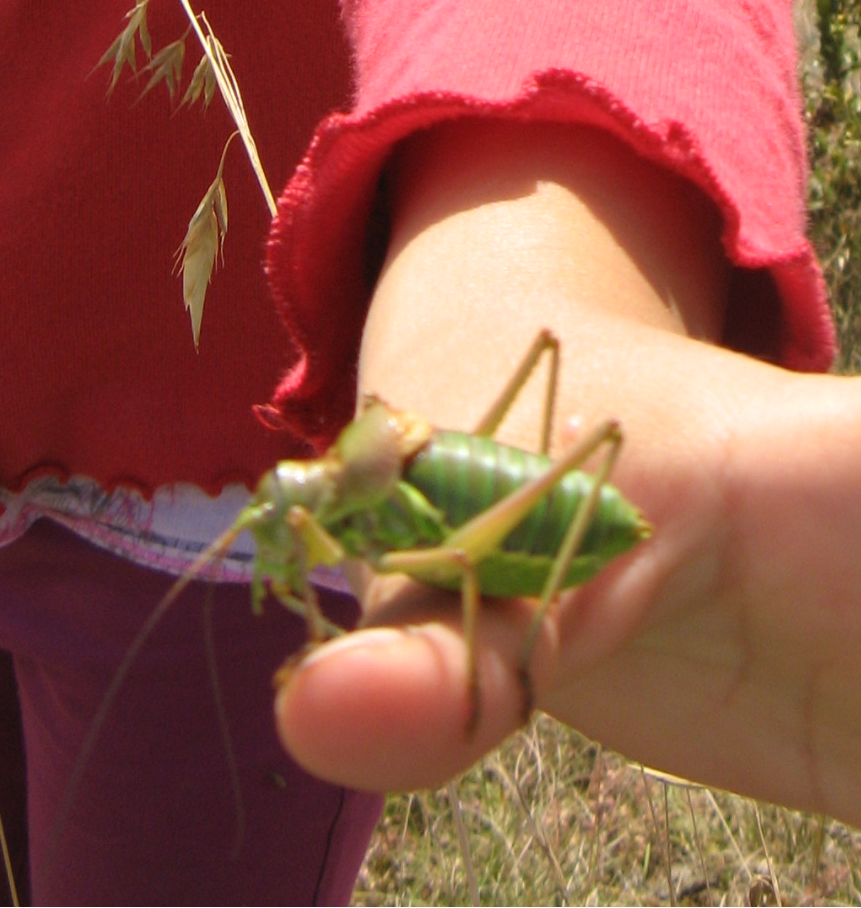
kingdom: Animalia
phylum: Arthropoda
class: Insecta
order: Orthoptera
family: Tettigoniidae
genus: Ephippiger
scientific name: Ephippiger diurnus
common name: Western saddle bush-cricket
